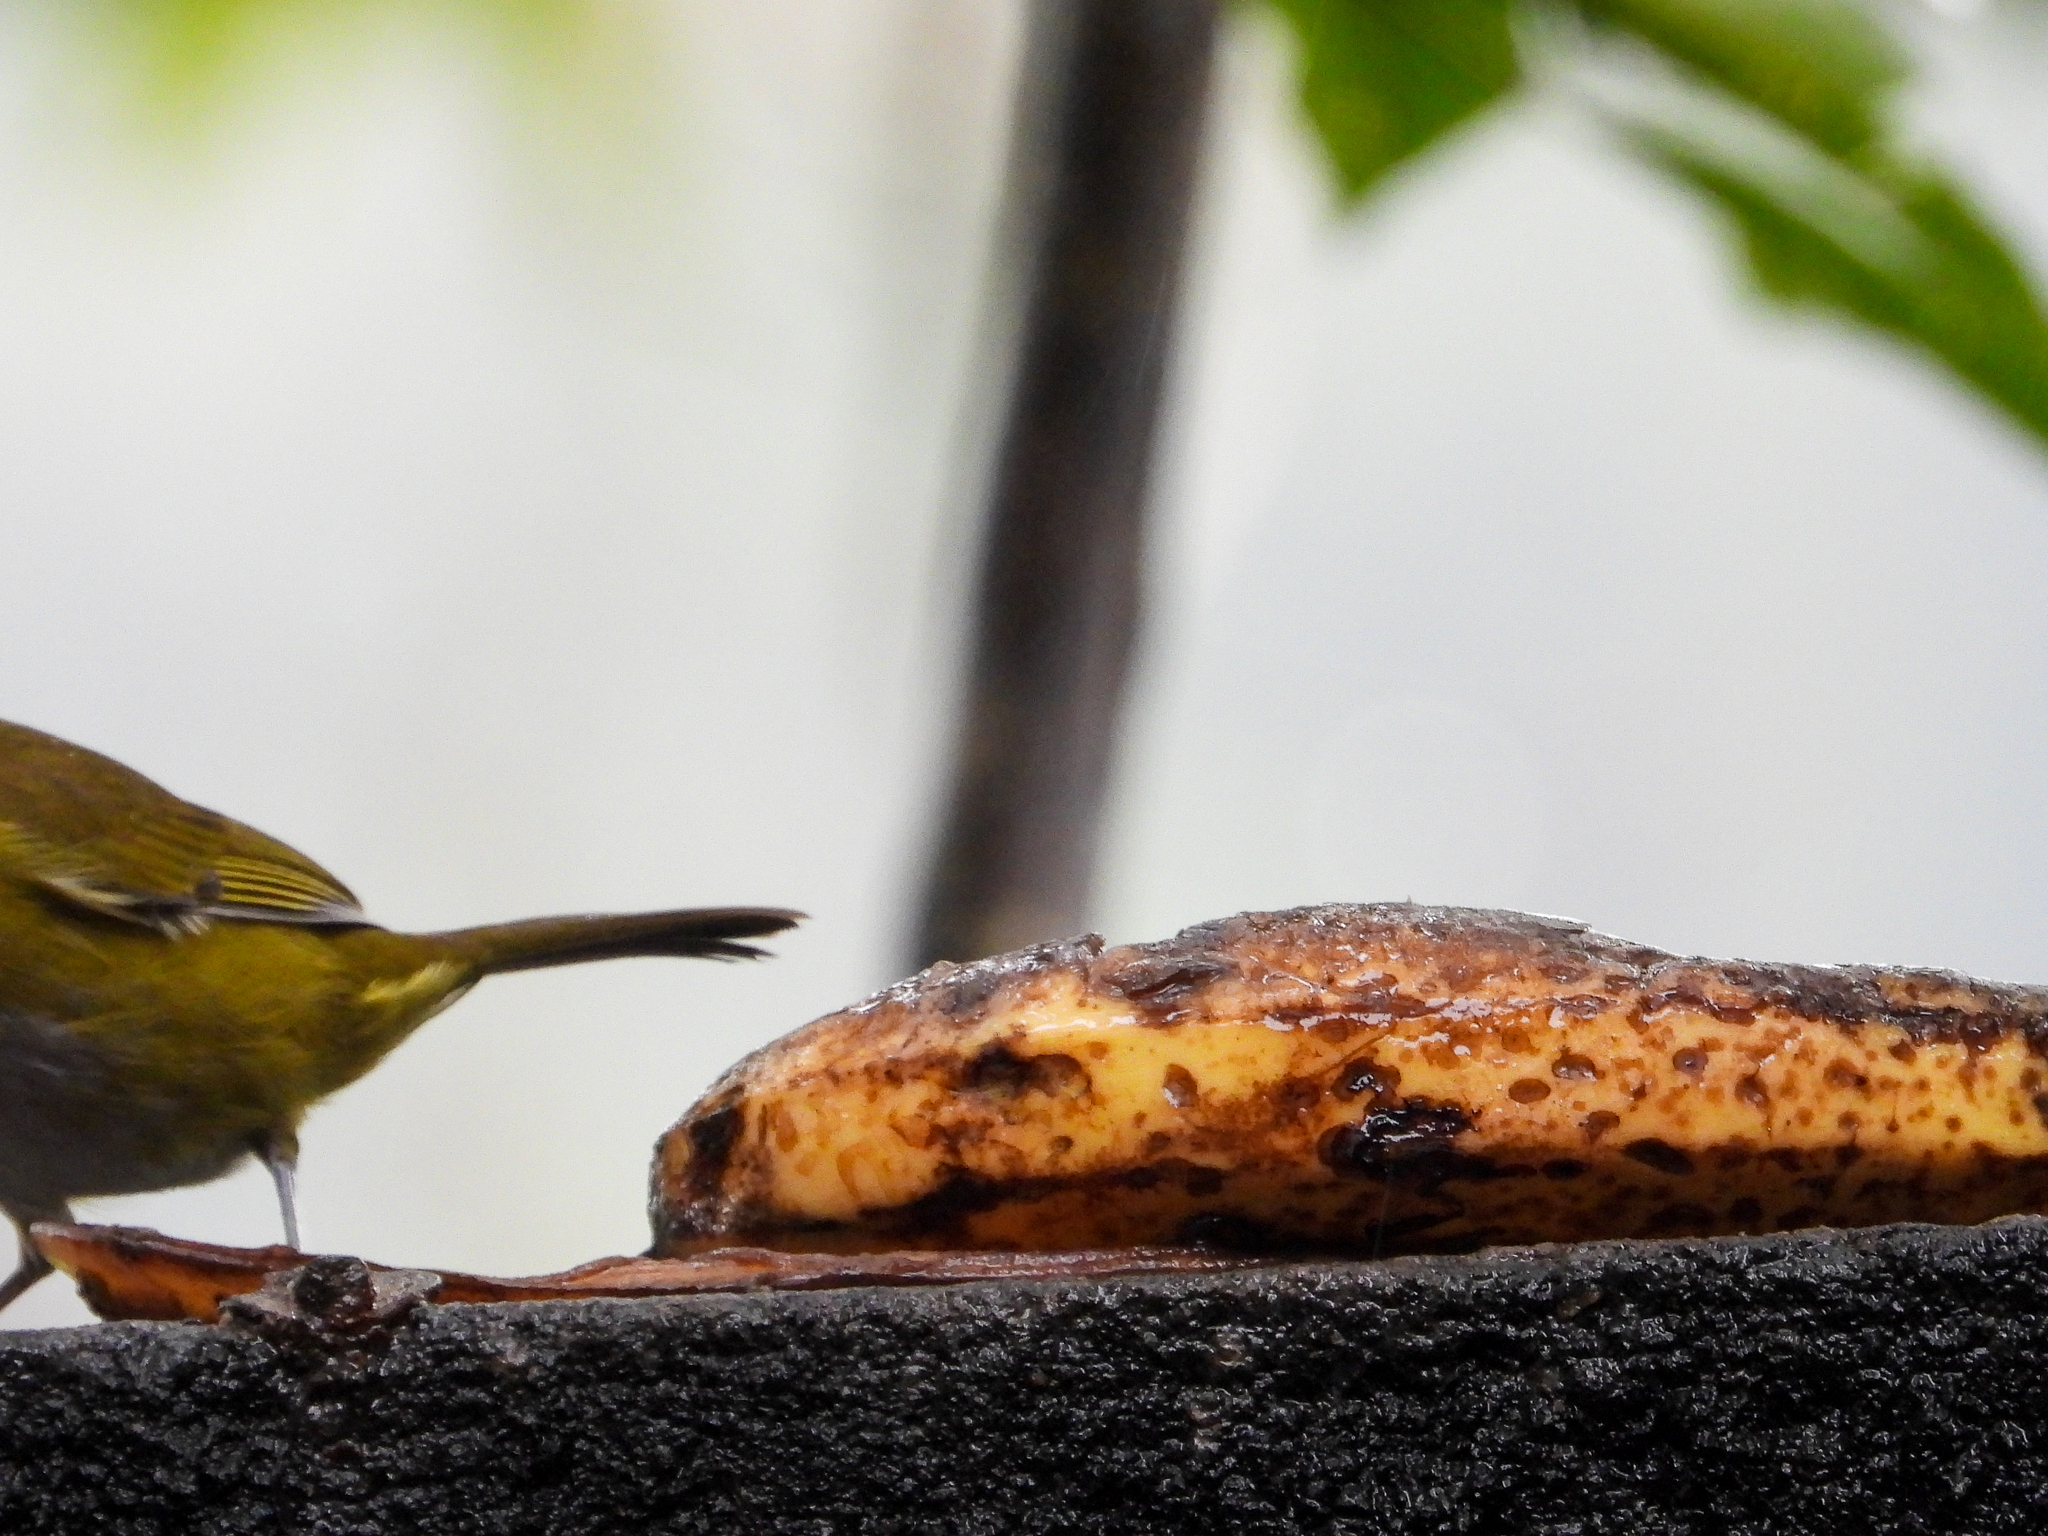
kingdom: Animalia
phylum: Chordata
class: Aves
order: Passeriformes
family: Passerellidae
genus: Chlorospingus
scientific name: Chlorospingus flavopectus
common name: Common chlorospingus
